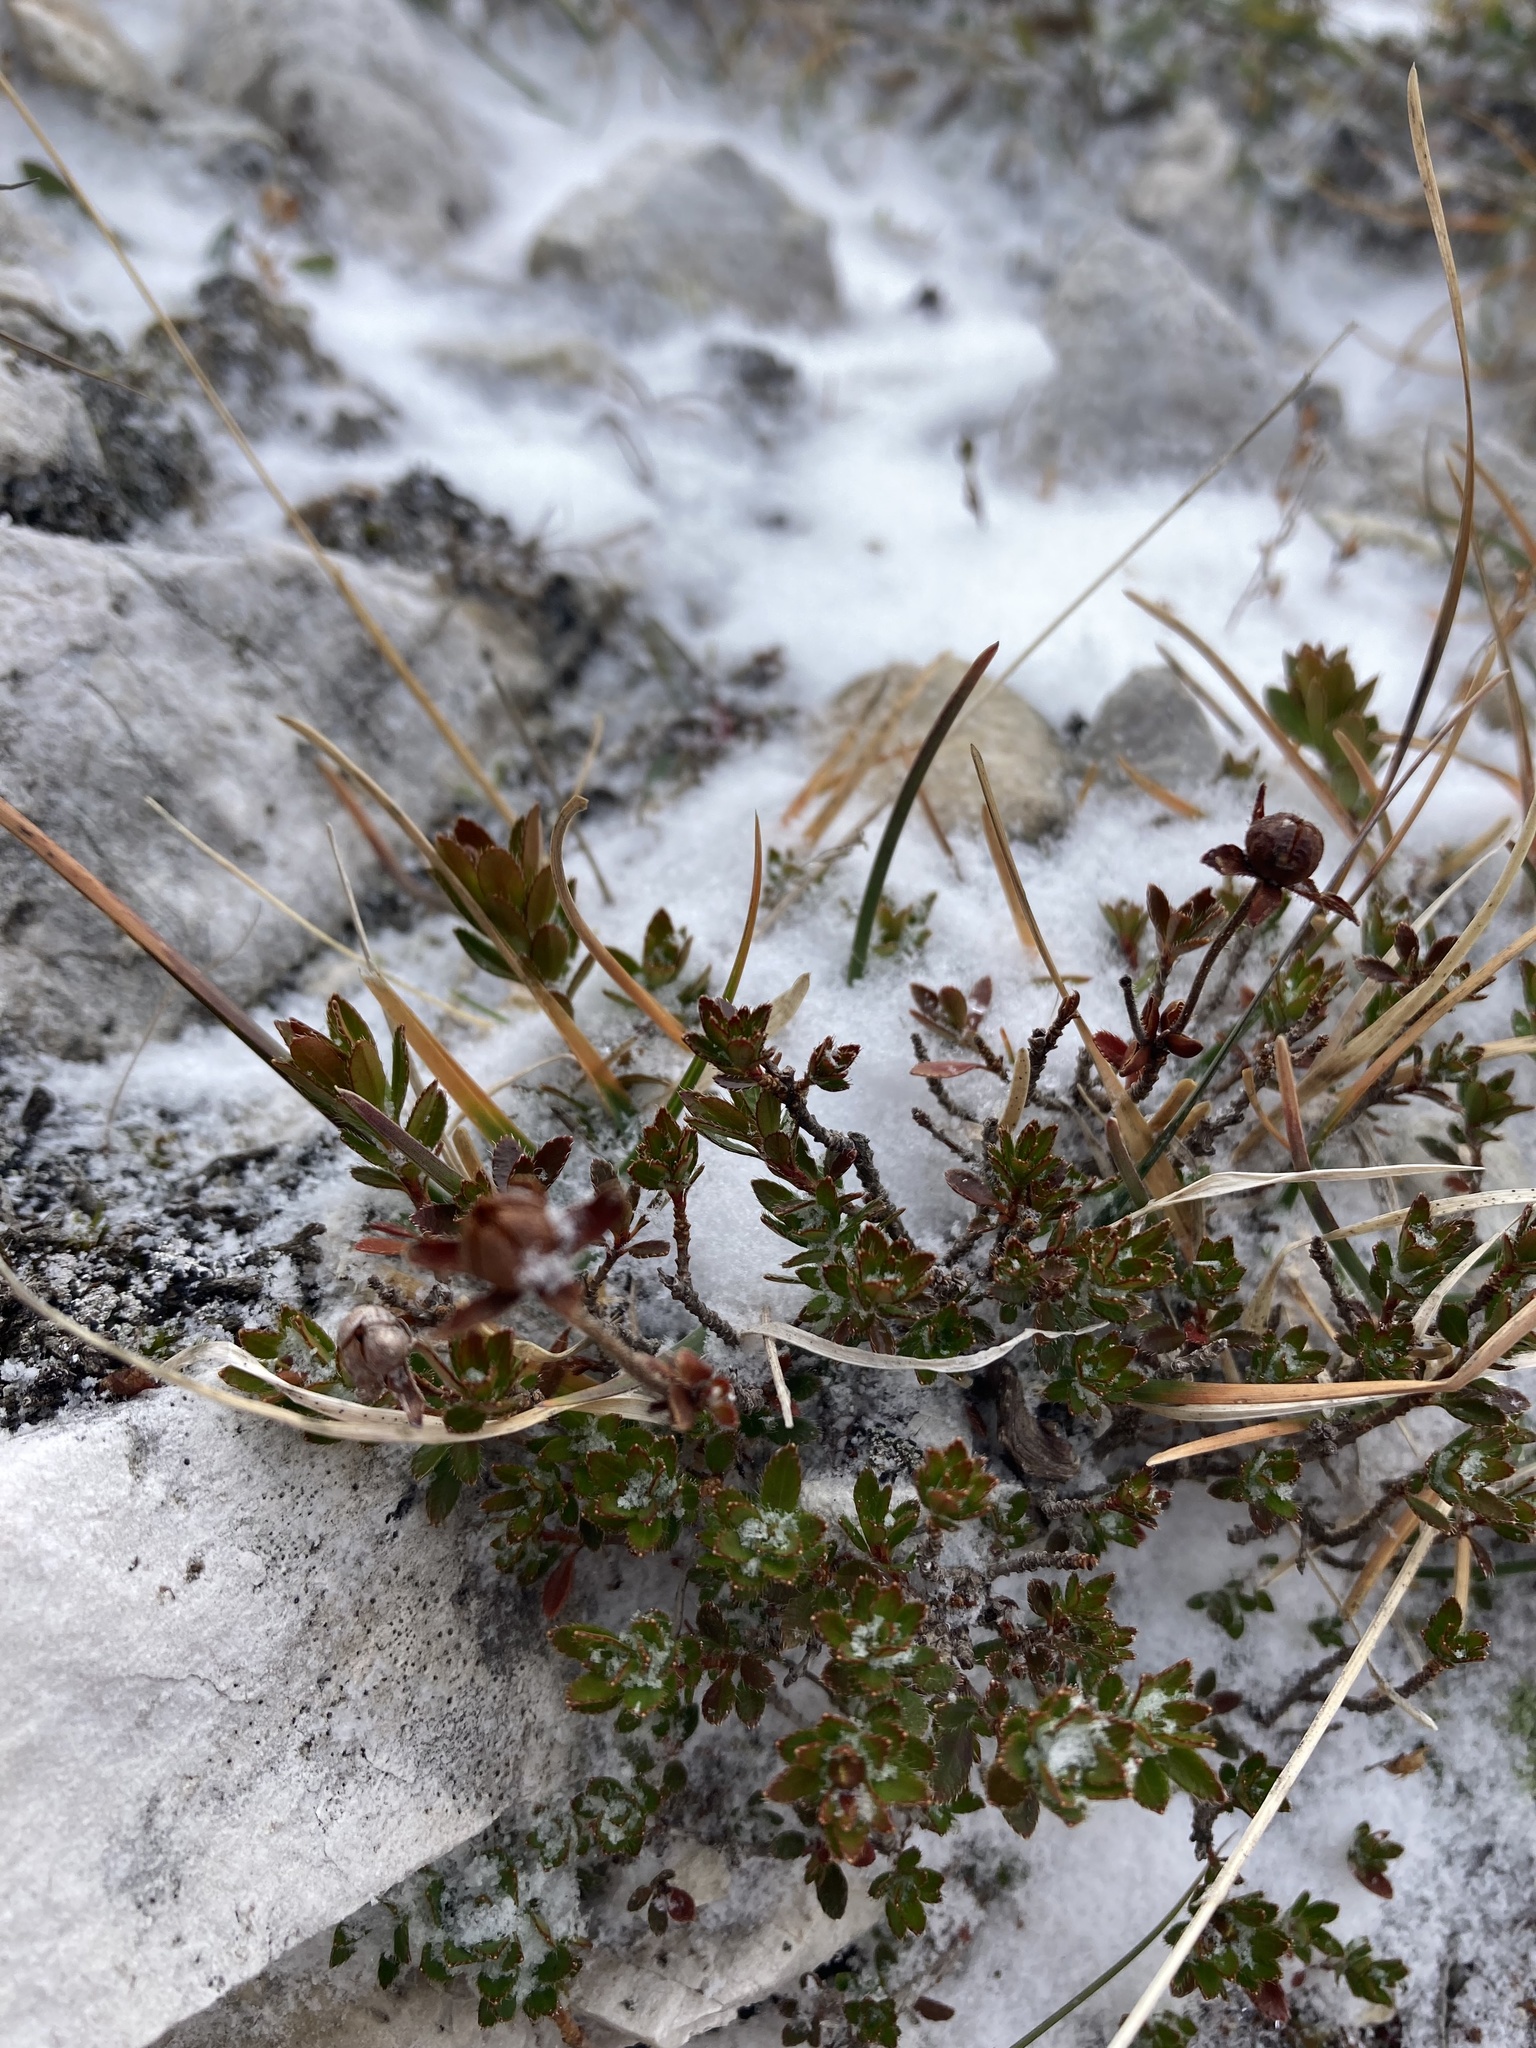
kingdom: Plantae
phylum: Tracheophyta
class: Magnoliopsida
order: Ericales
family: Ericaceae
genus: Rhododendron
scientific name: Rhododendron hirsutum
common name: Hairy alpenrose
